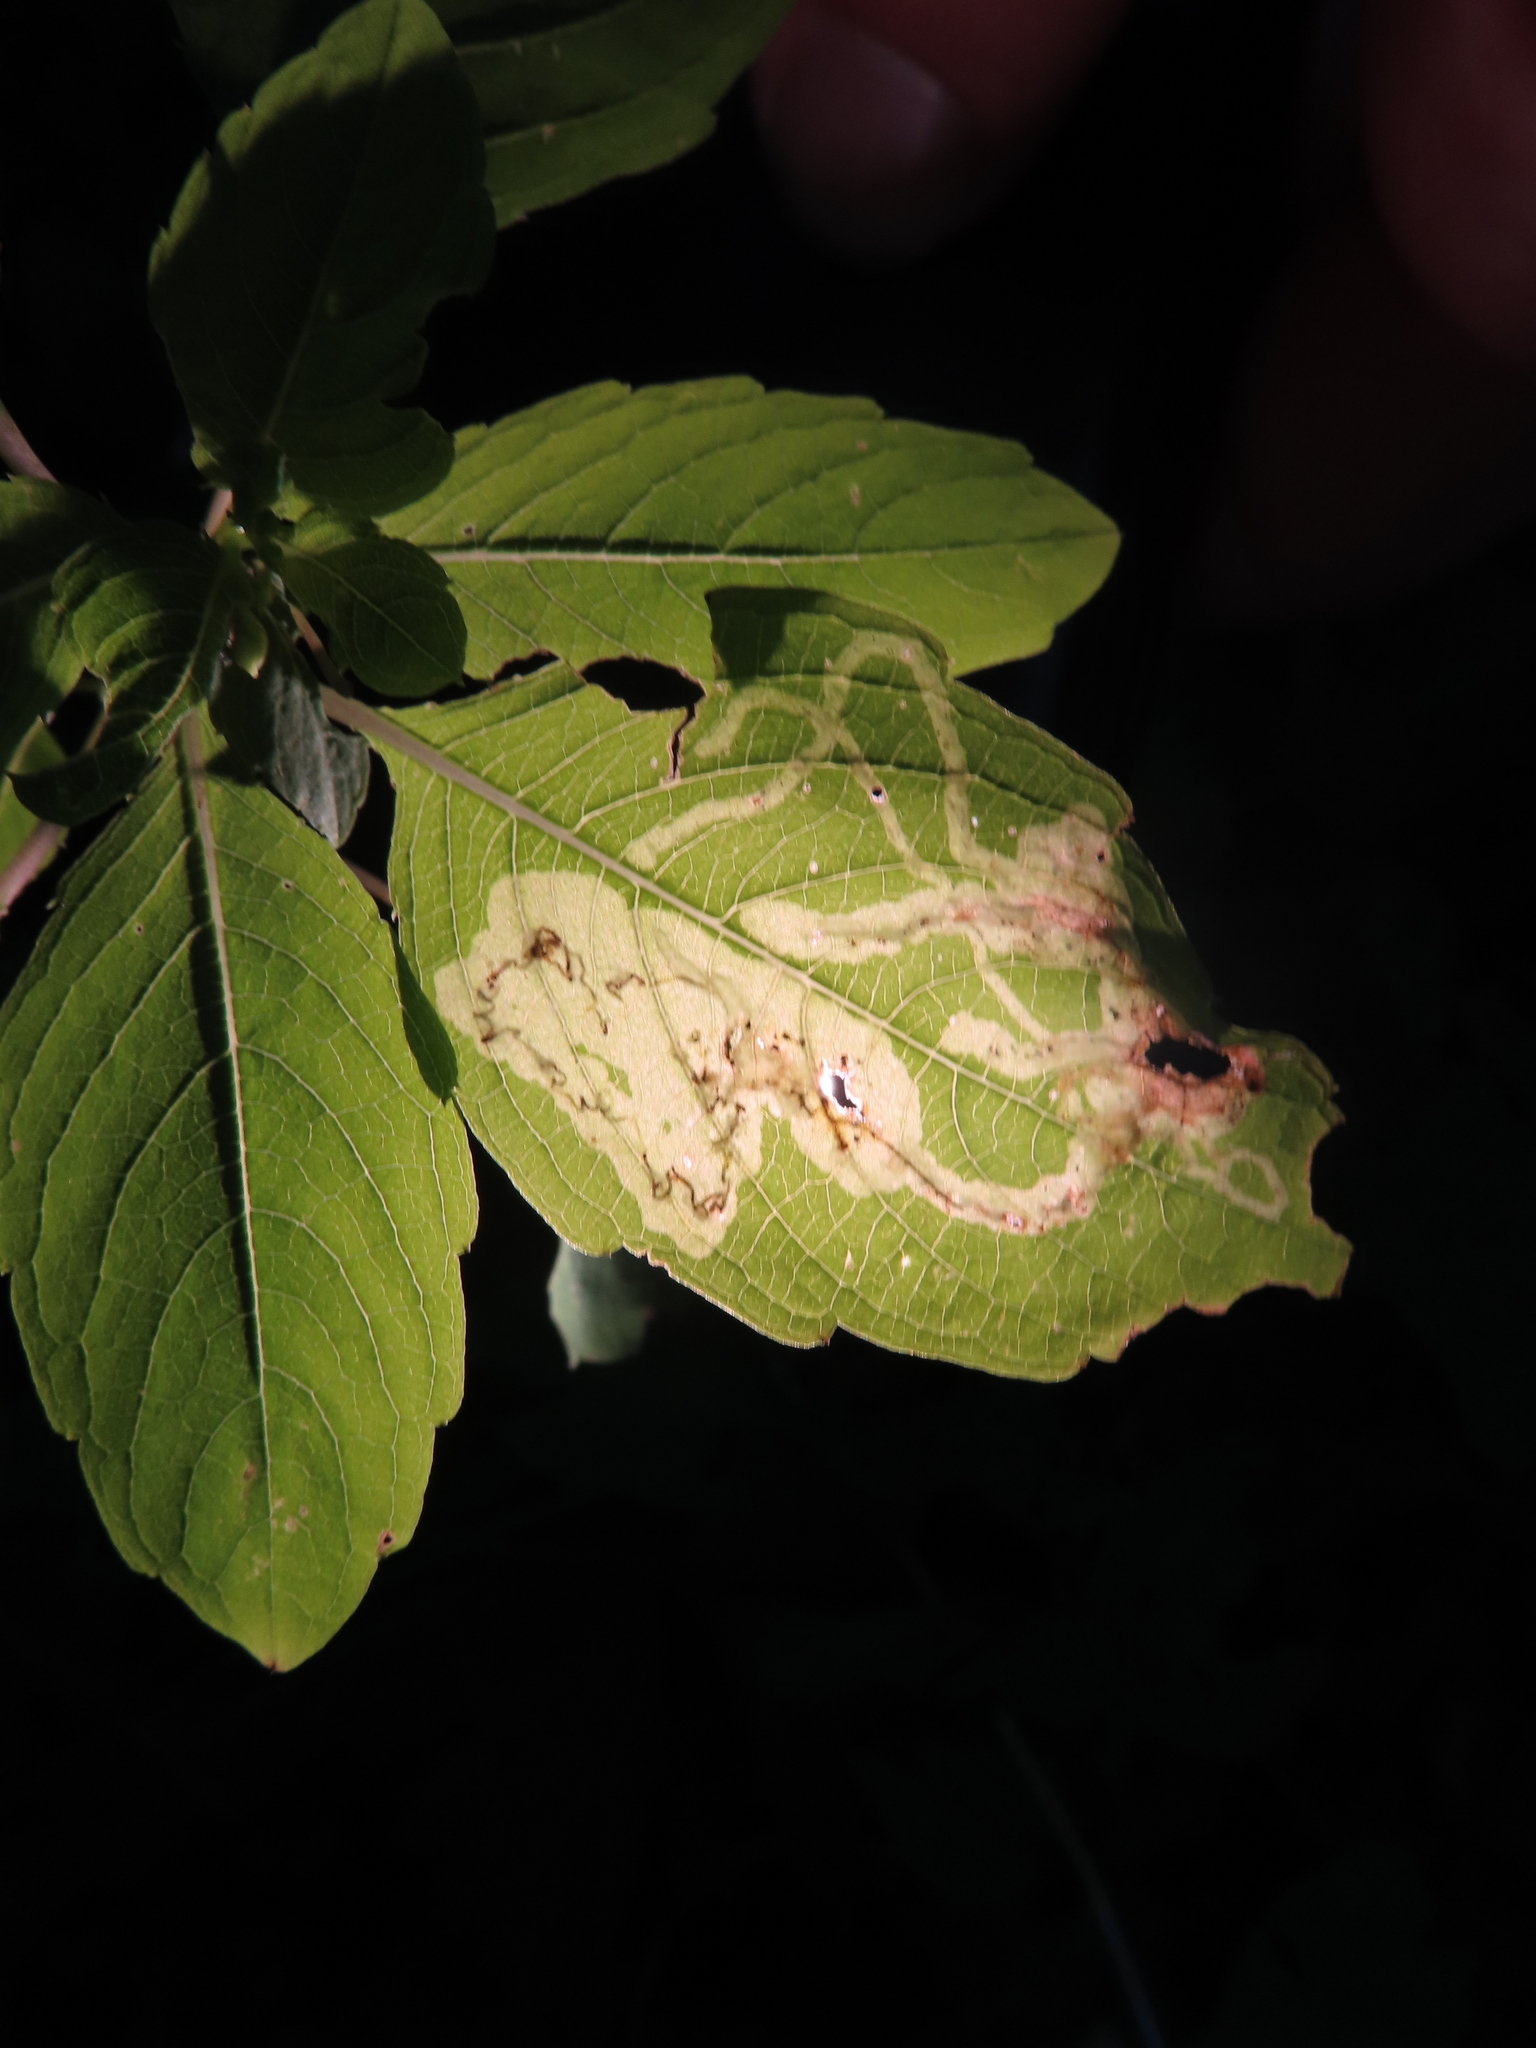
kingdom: Animalia
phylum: Arthropoda
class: Insecta
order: Diptera
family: Agromyzidae
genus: Phytoliriomyza
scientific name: Phytoliriomyza melampyga
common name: Jewelweed leaf-miner fly
